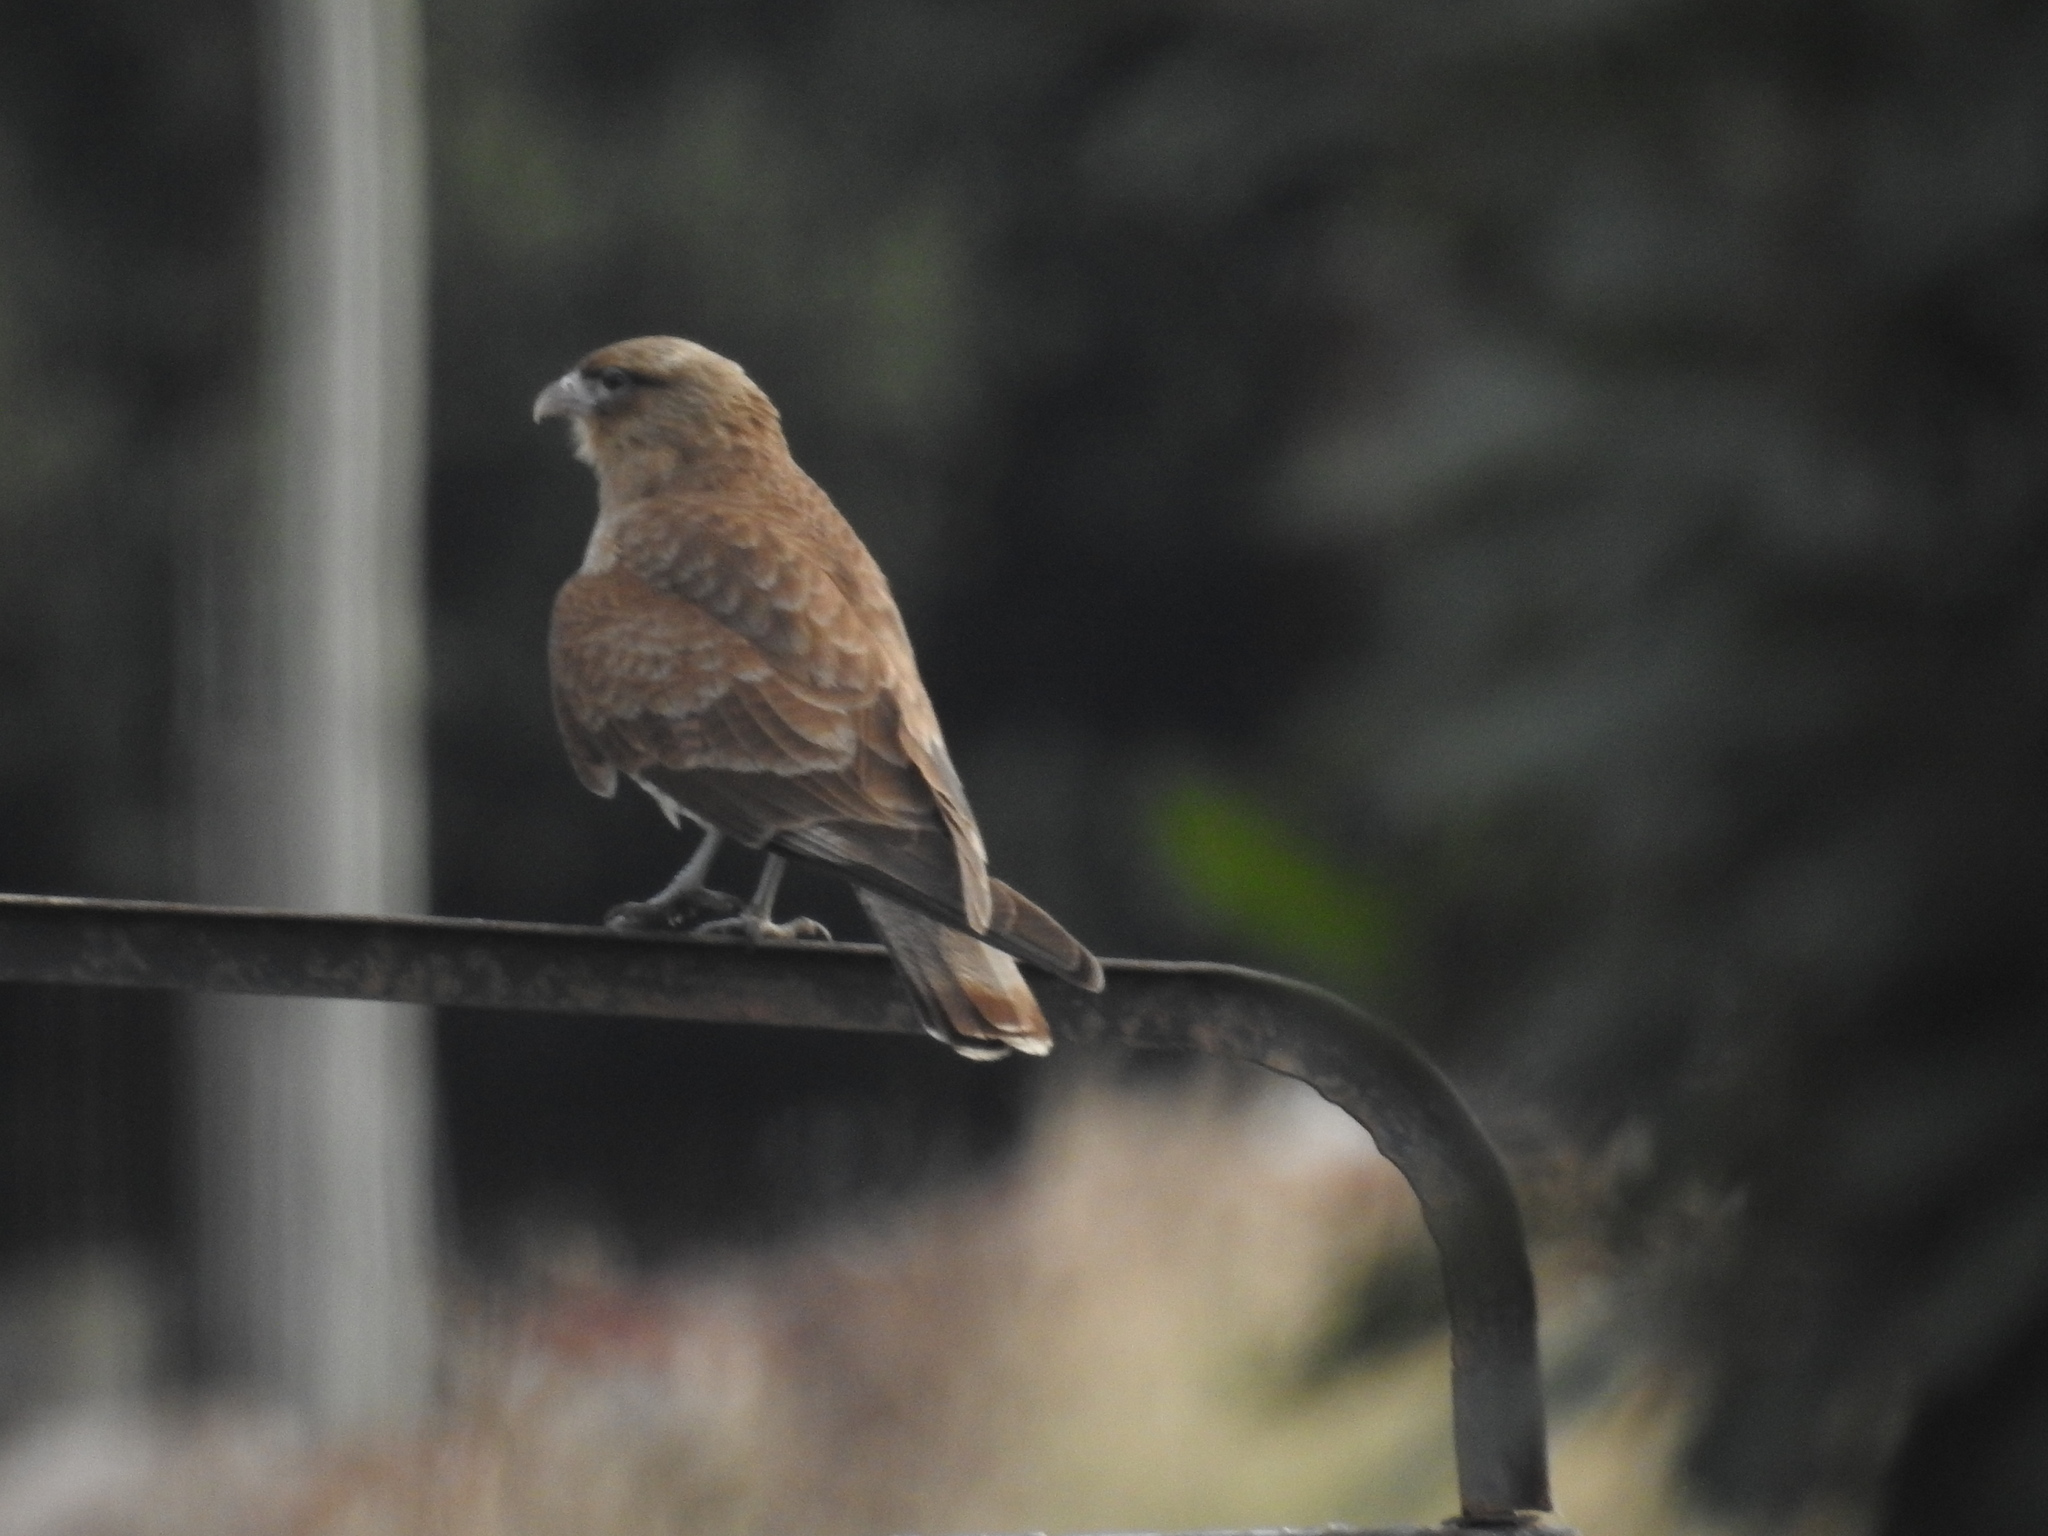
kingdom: Animalia
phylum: Chordata
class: Aves
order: Falconiformes
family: Falconidae
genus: Daptrius
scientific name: Daptrius
